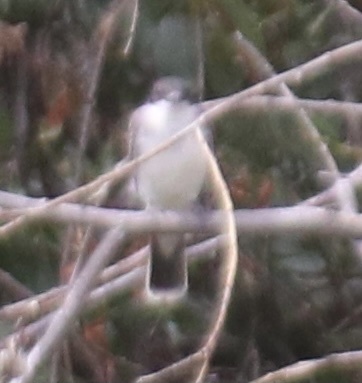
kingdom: Animalia
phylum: Chordata
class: Aves
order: Passeriformes
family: Tyrannidae
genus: Tyrannus
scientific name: Tyrannus tyrannus
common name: Eastern kingbird
